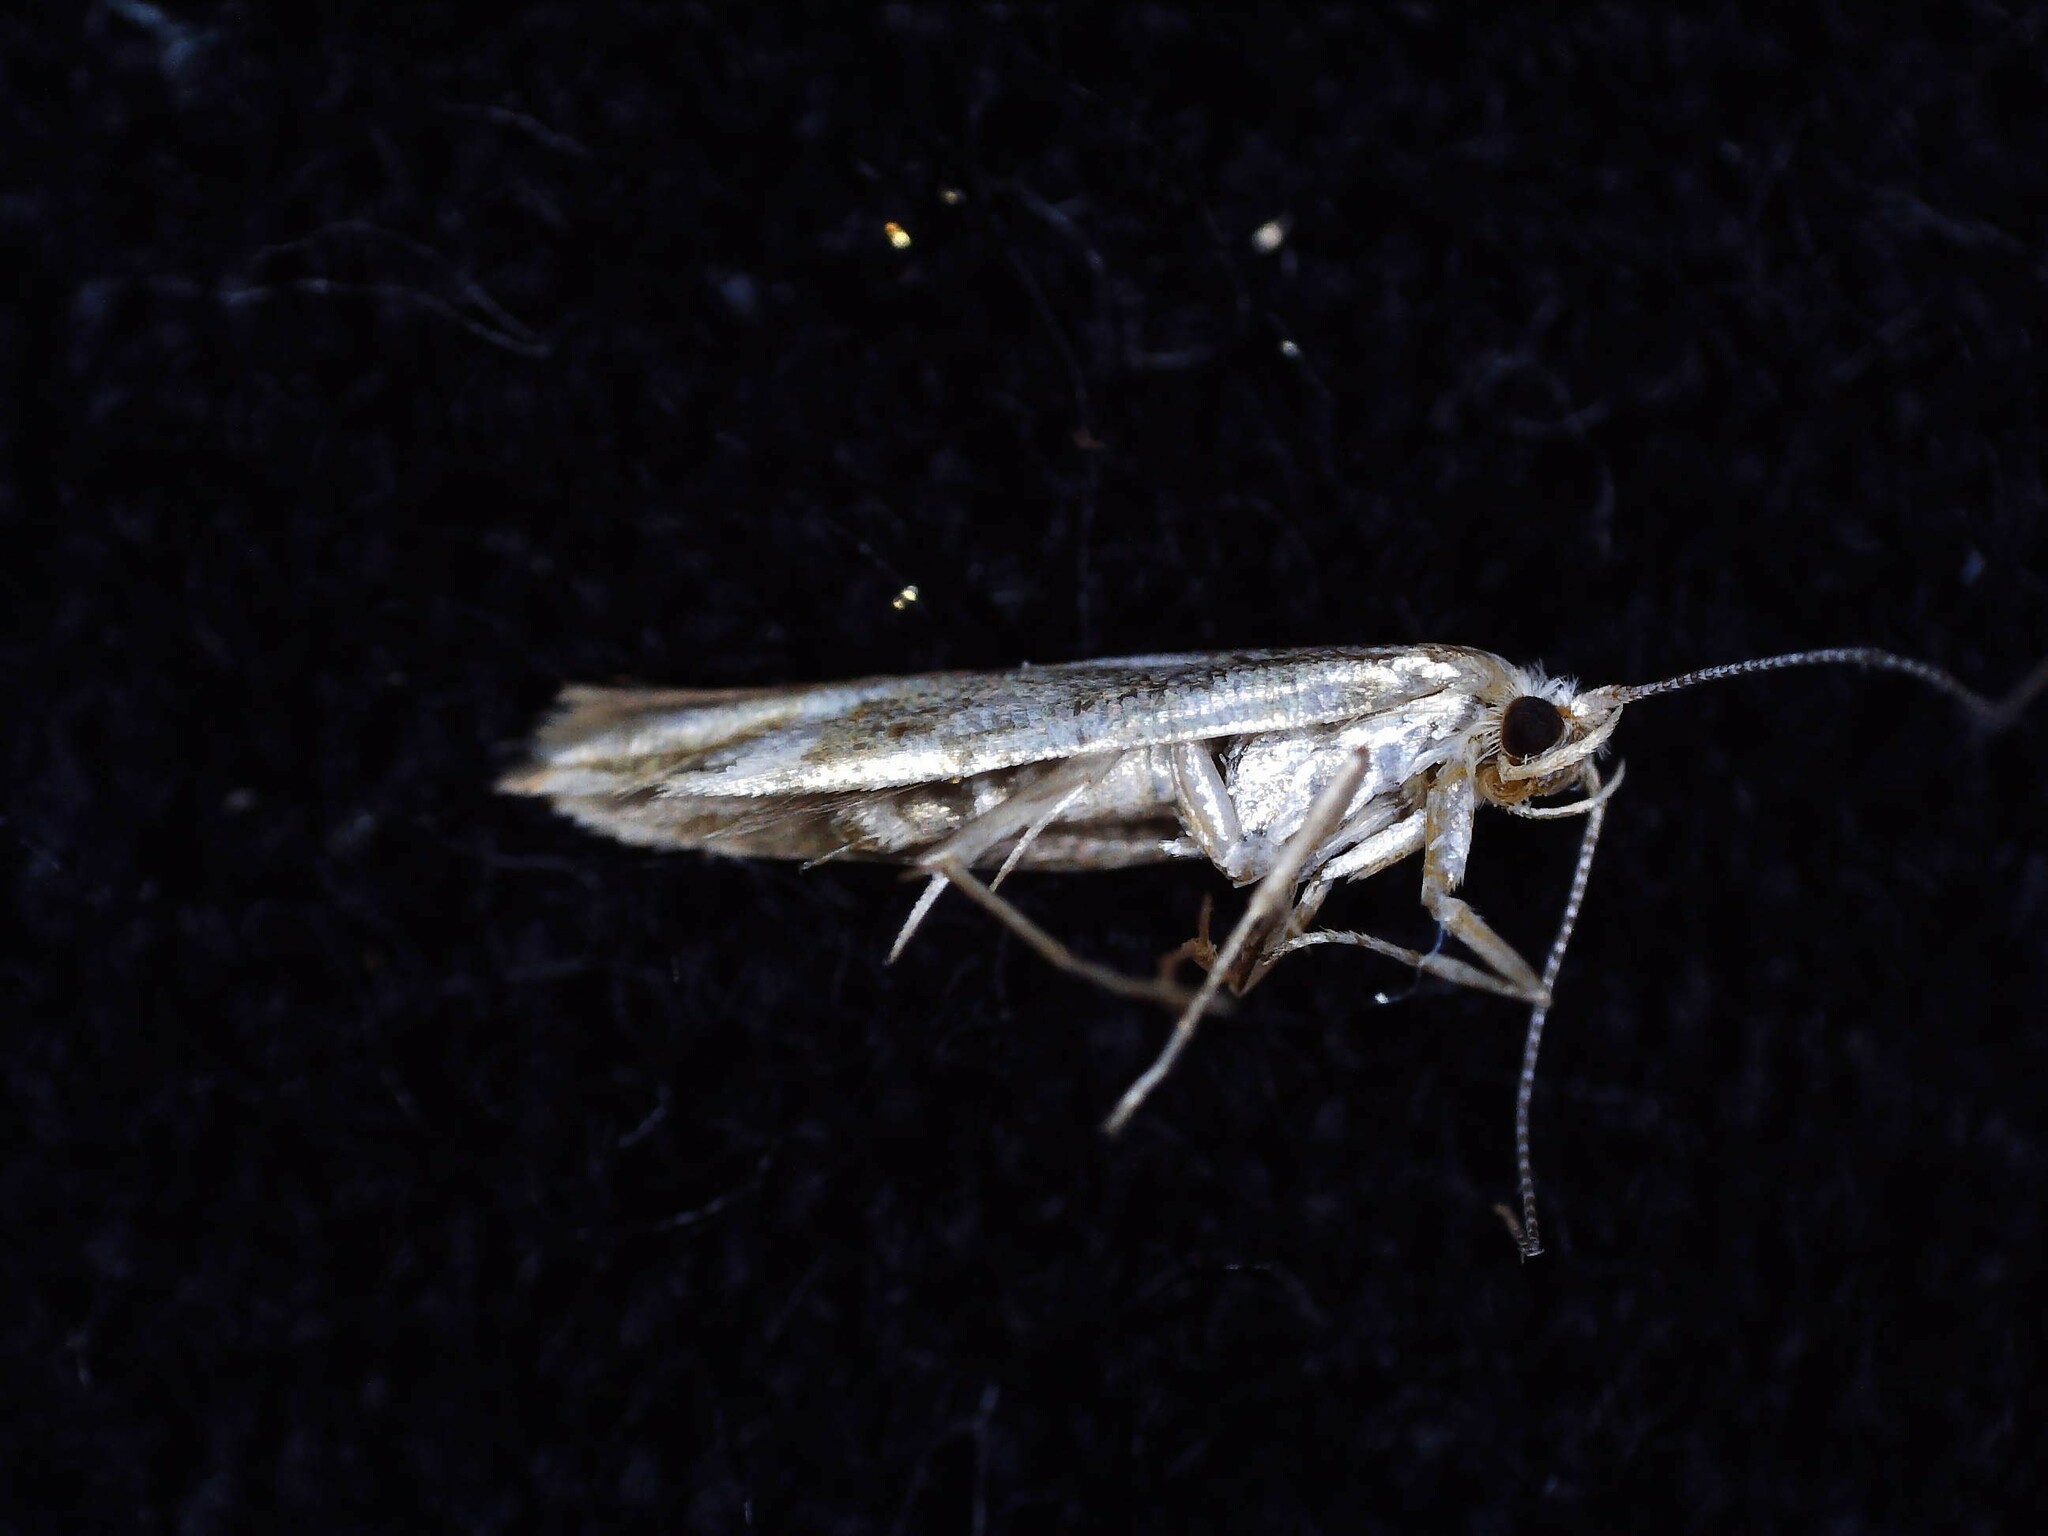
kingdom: Animalia
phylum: Arthropoda
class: Insecta
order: Lepidoptera
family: Argyresthiidae
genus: Argyresthia
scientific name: Argyresthia goedartella
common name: Golden argent
